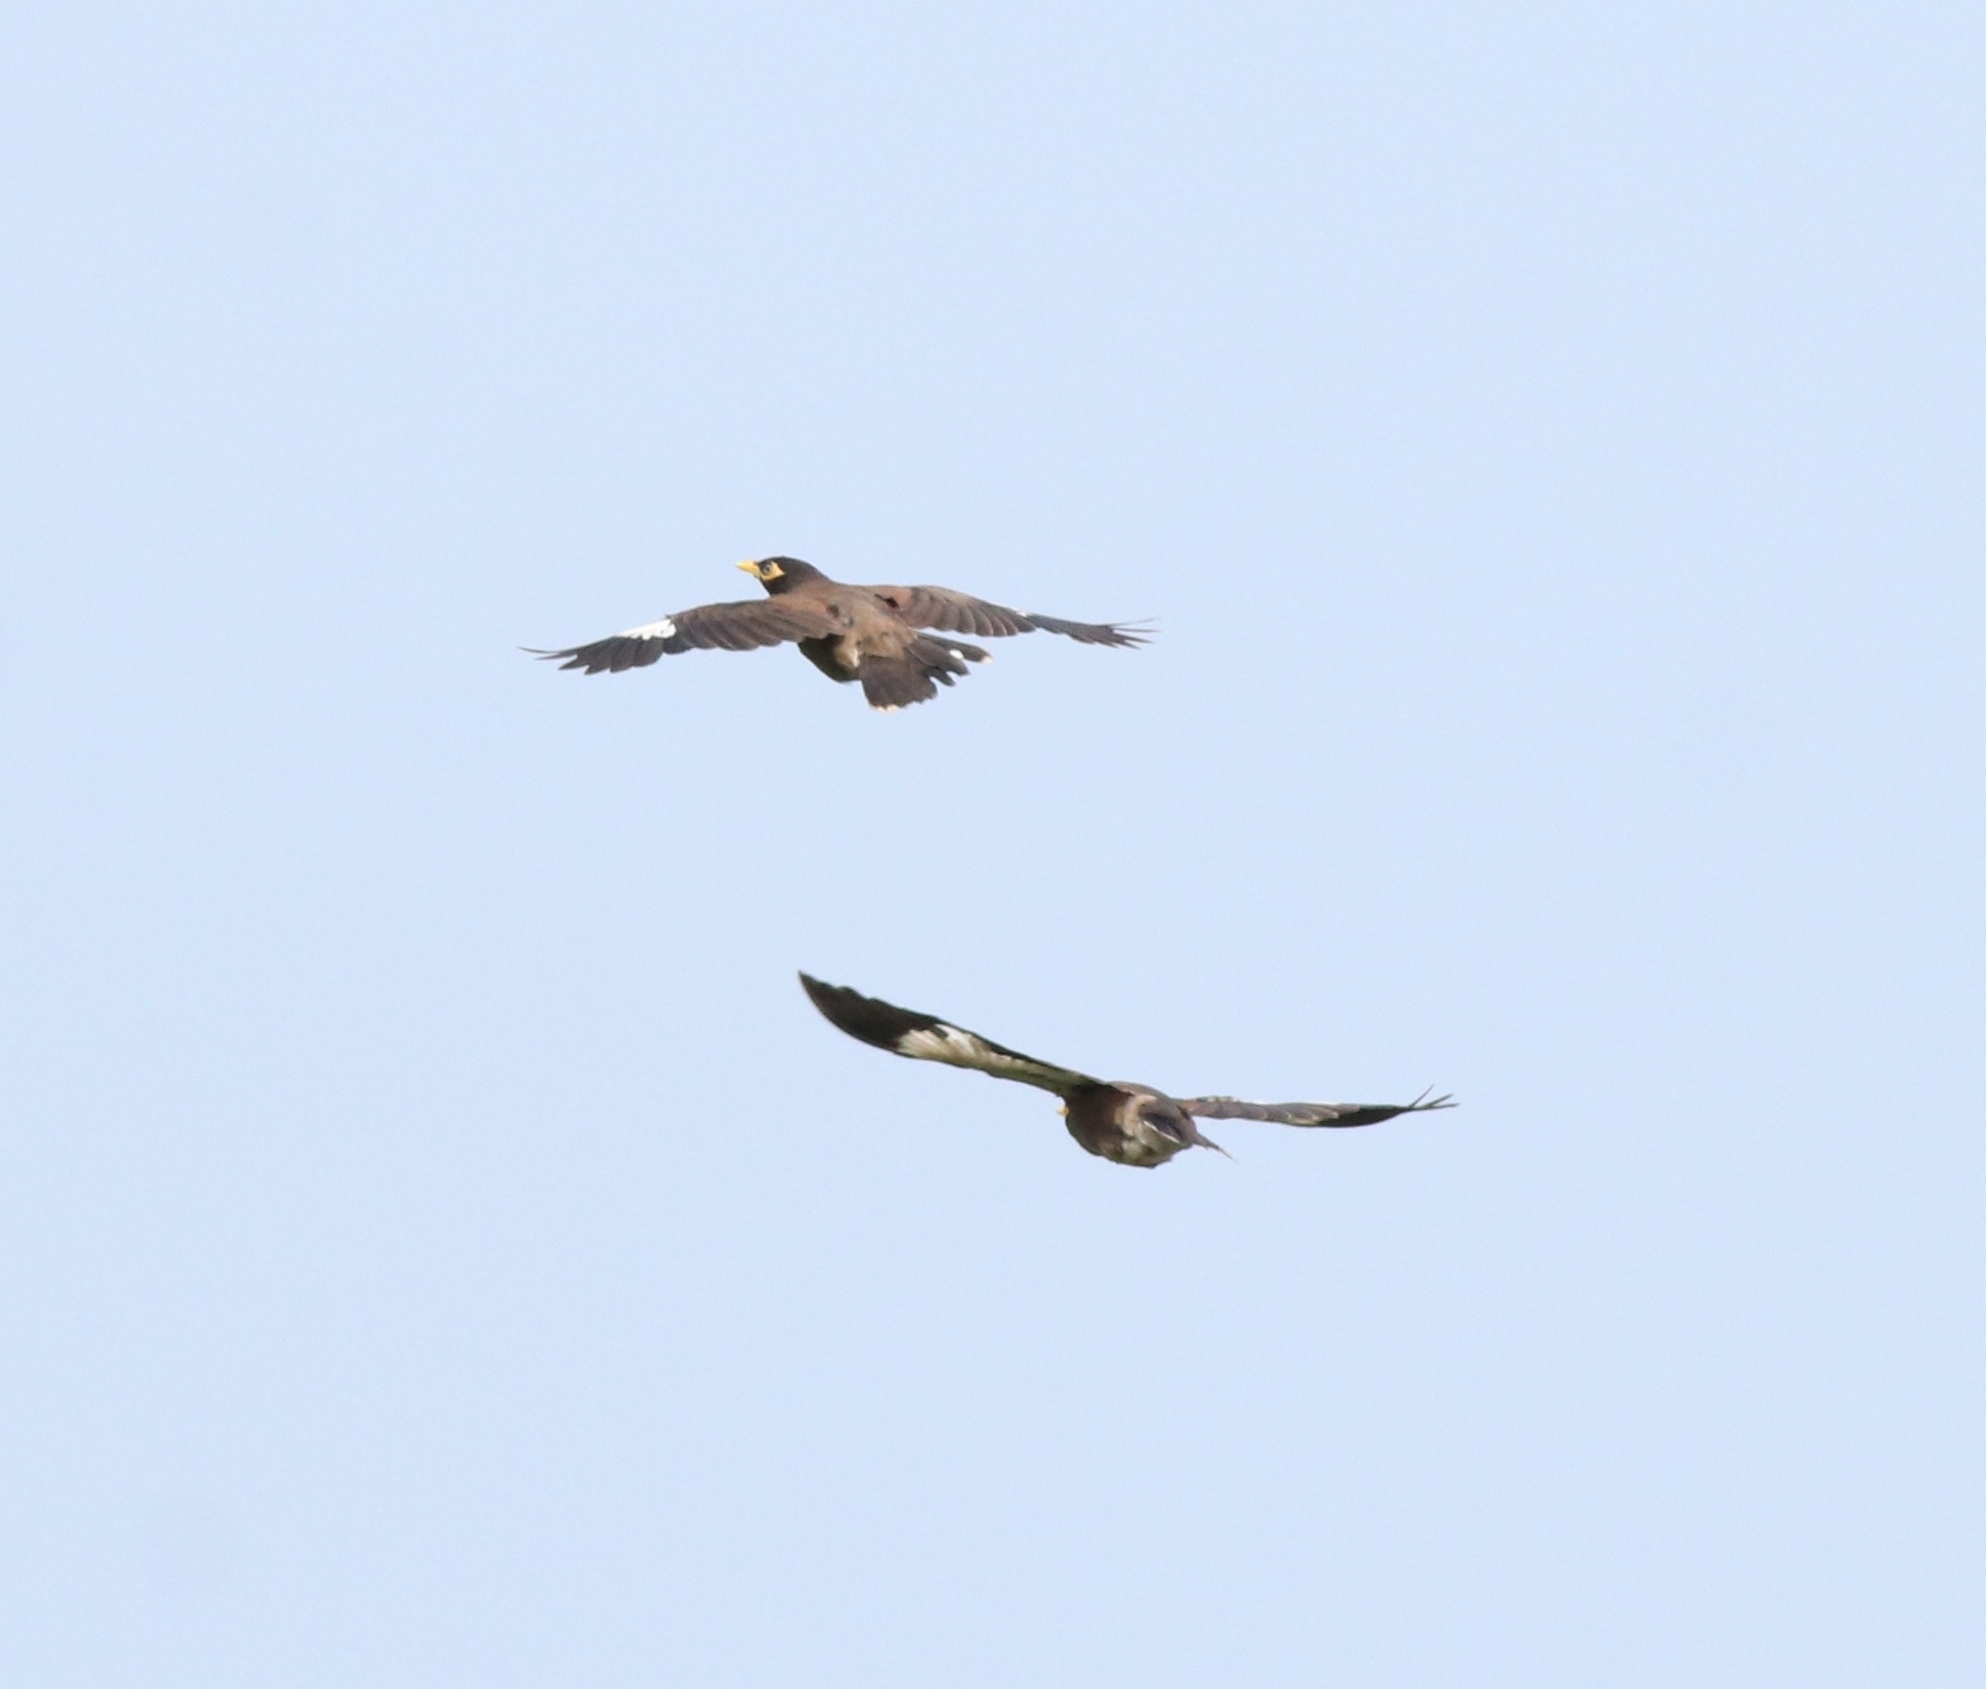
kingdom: Animalia
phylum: Chordata
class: Aves
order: Passeriformes
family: Sturnidae
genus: Acridotheres
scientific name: Acridotheres tristis
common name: Common myna
